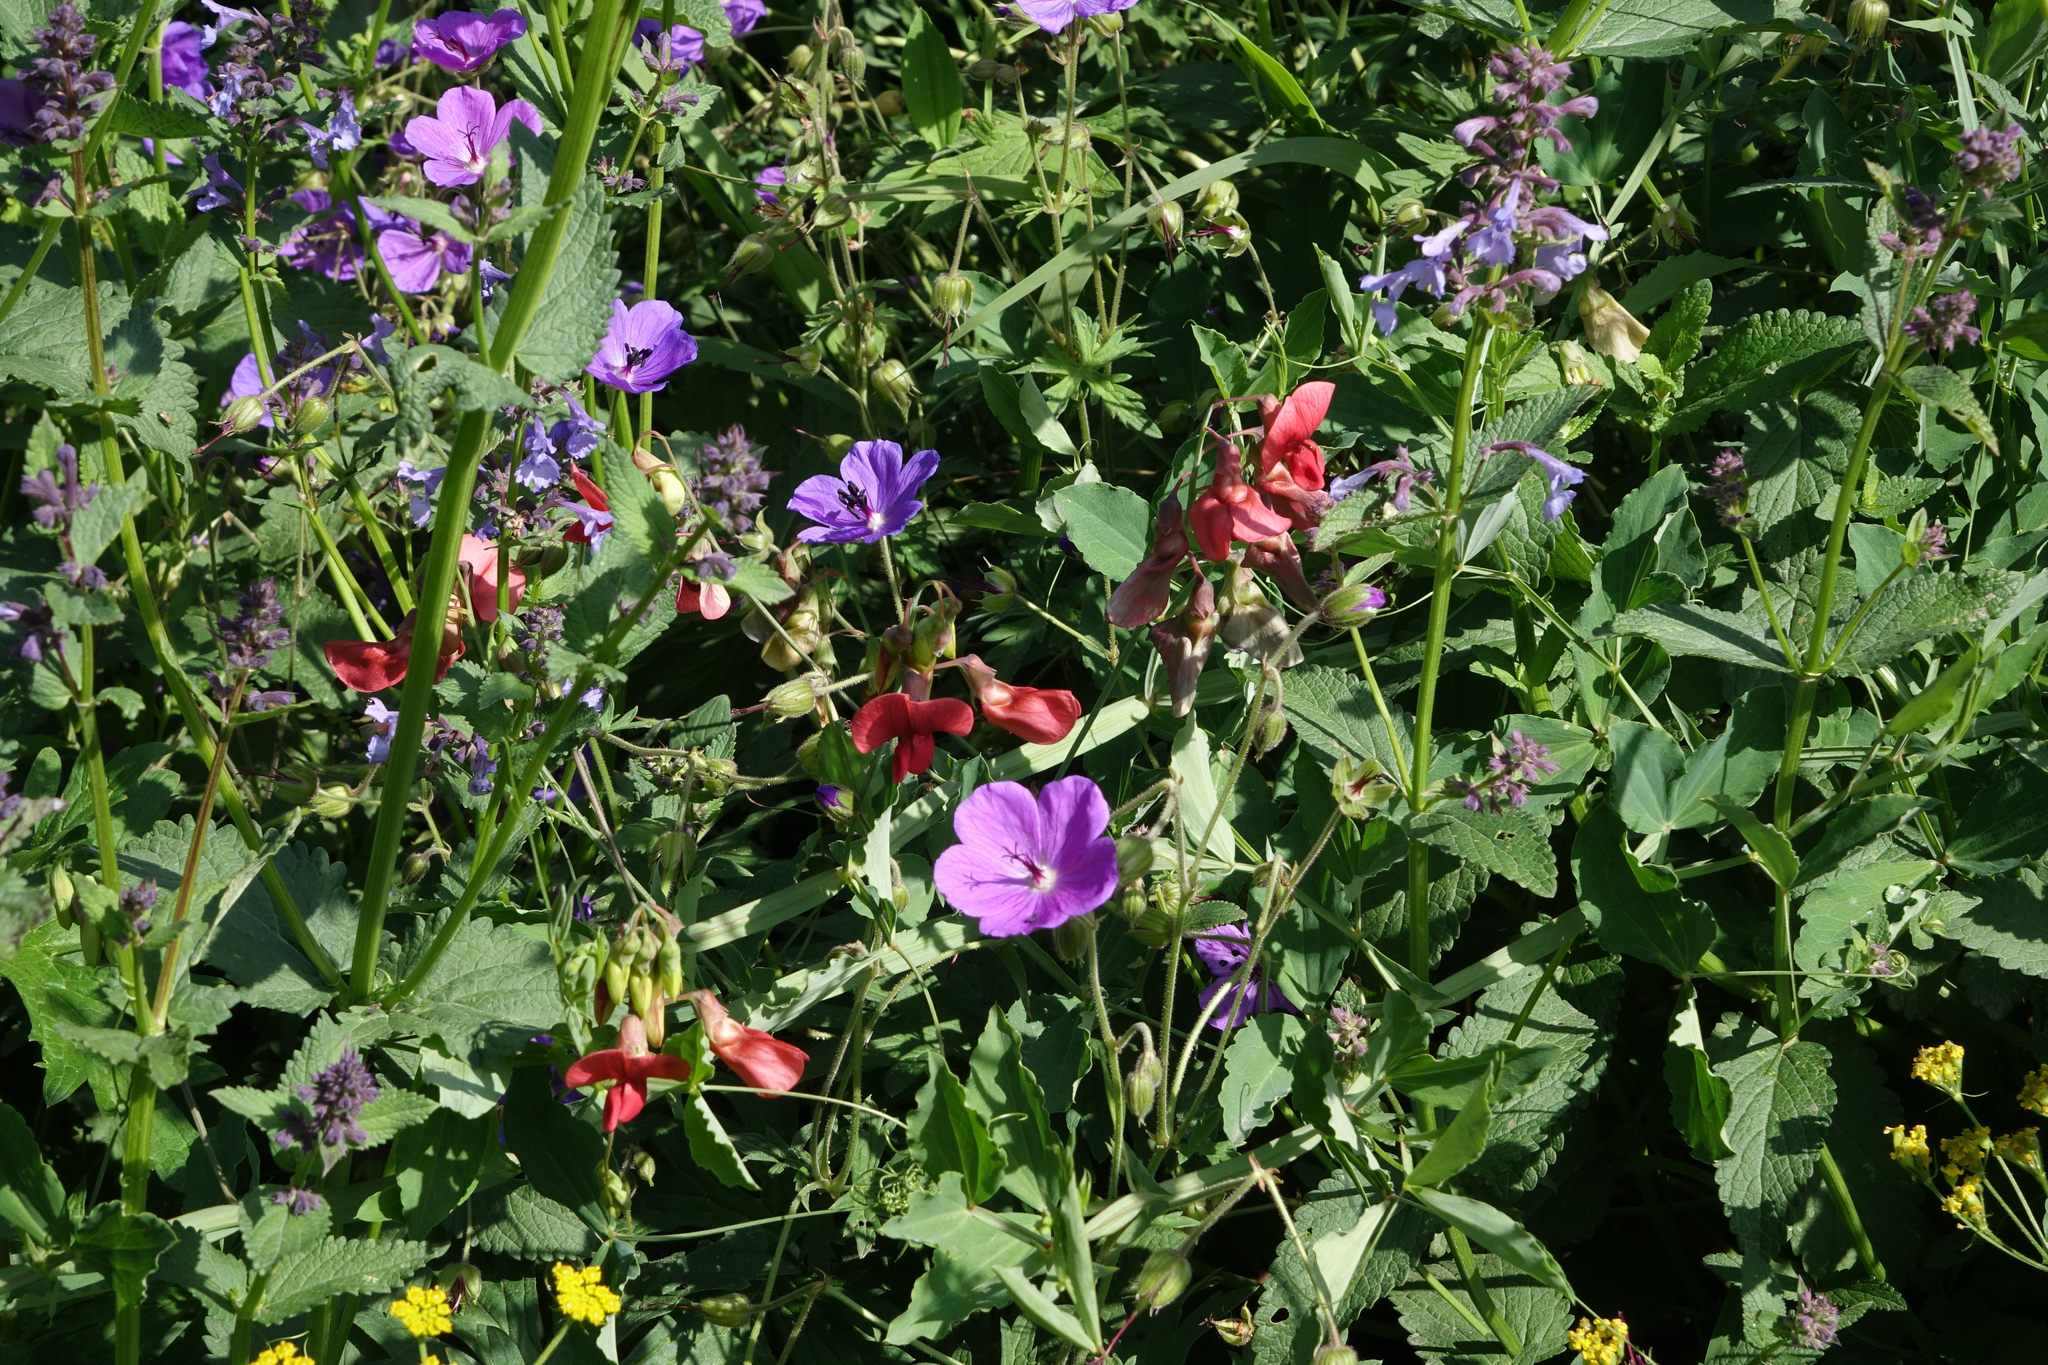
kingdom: Plantae
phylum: Tracheophyta
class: Magnoliopsida
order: Fabales
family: Fabaceae
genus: Lathyrus
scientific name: Lathyrus miniatus
